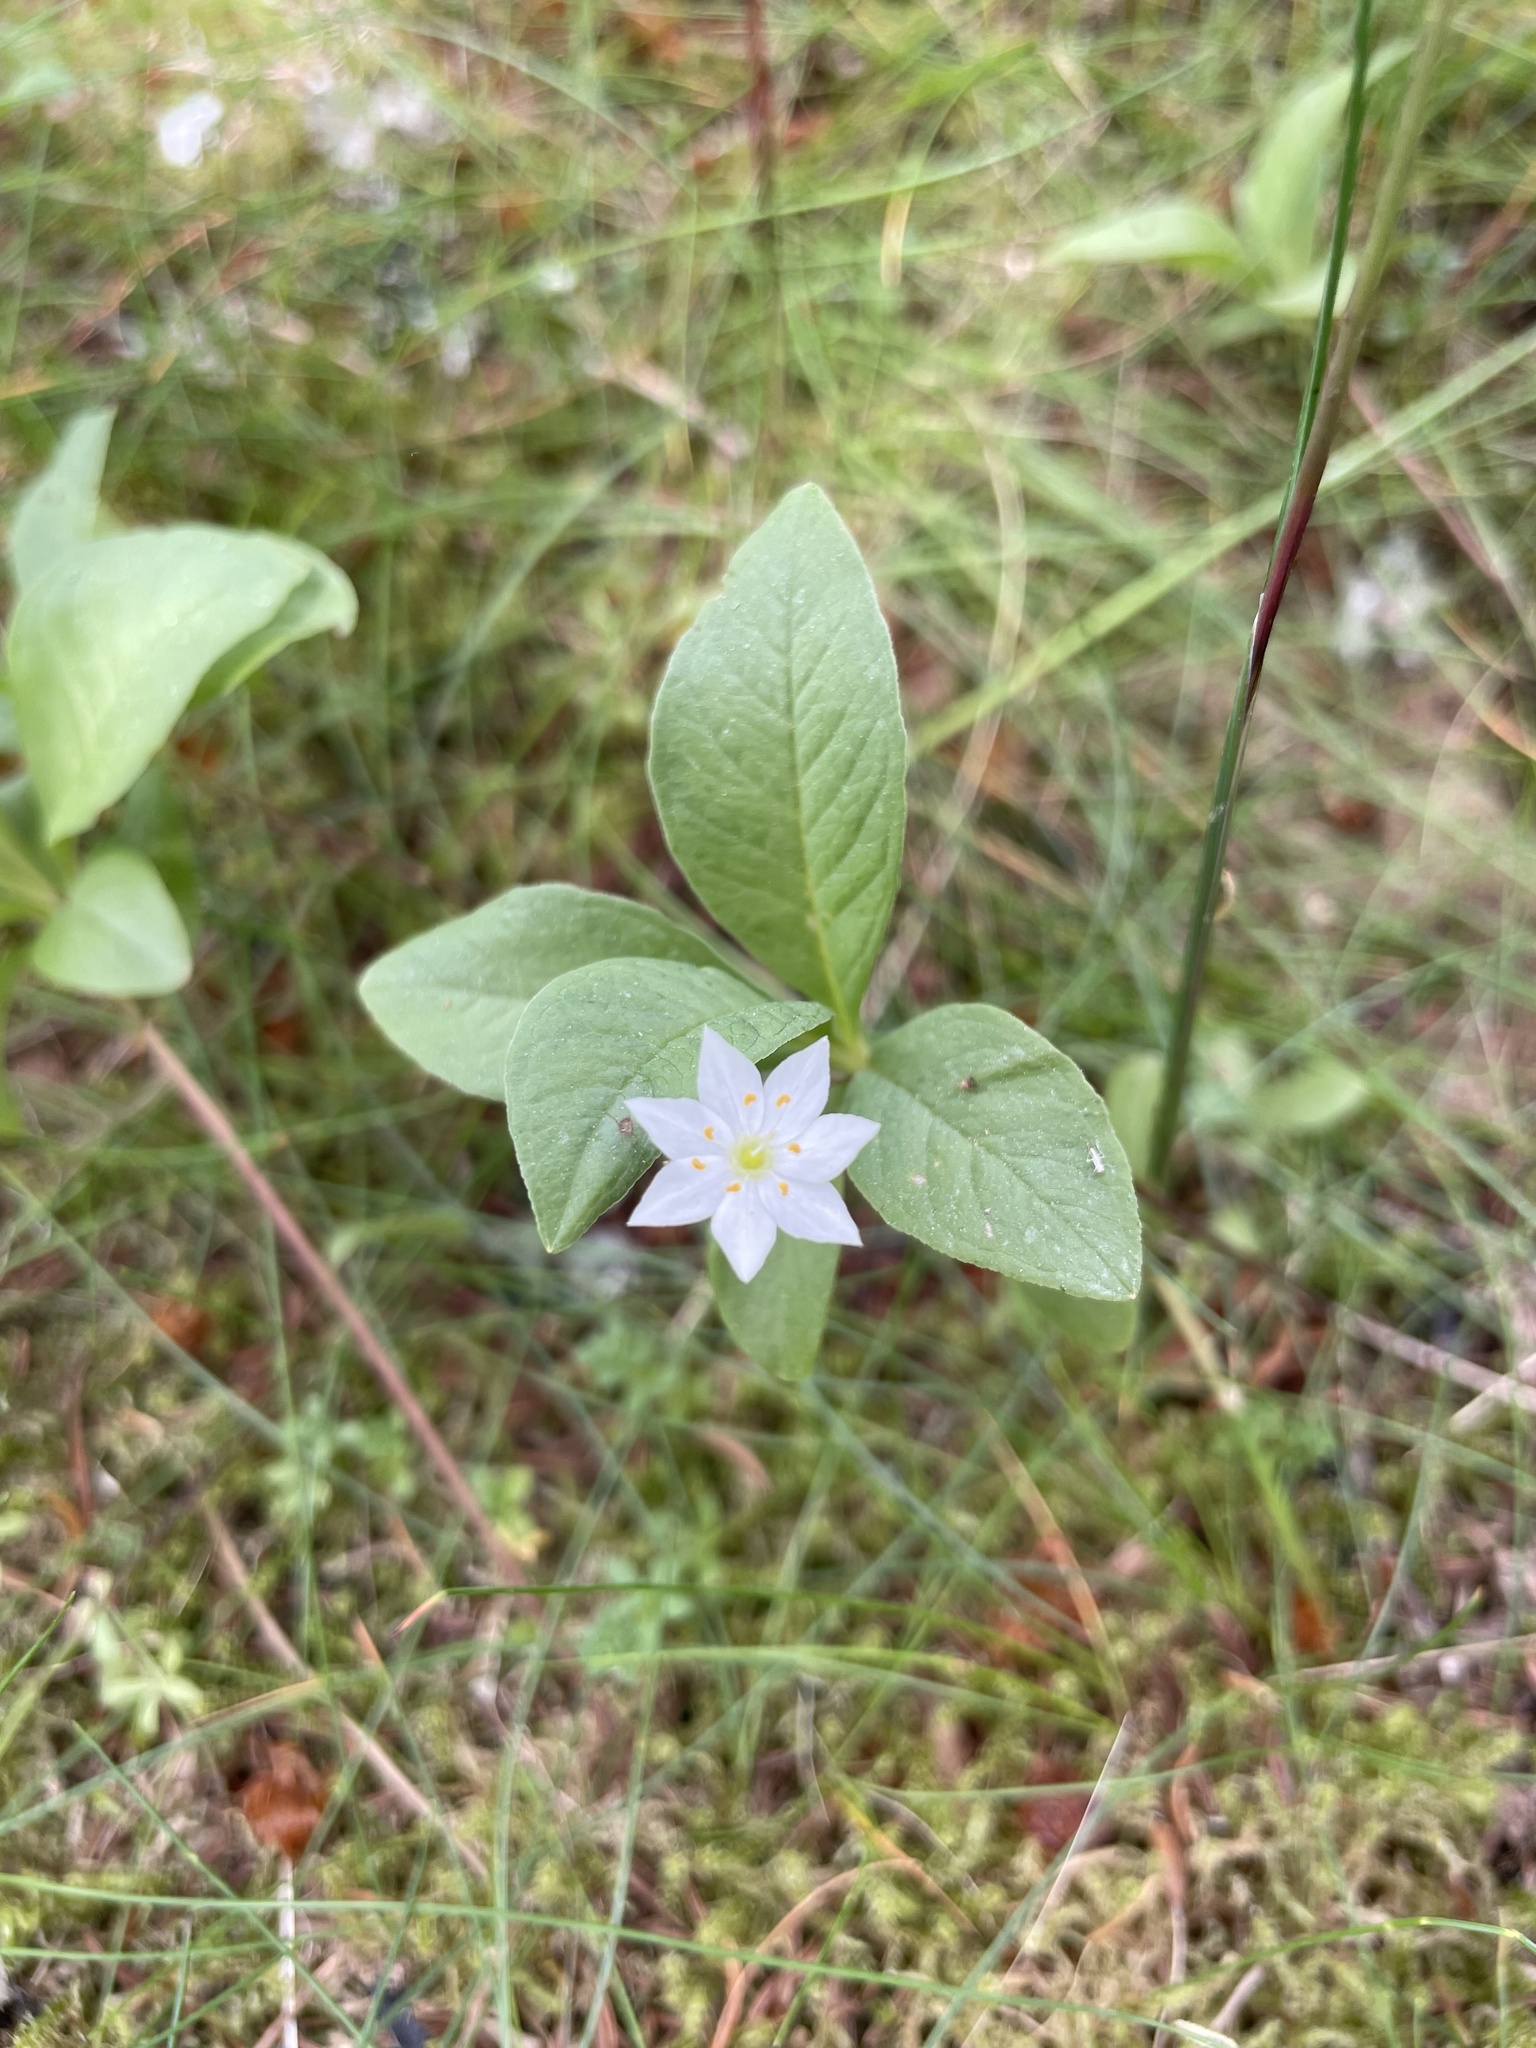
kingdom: Plantae
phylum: Tracheophyta
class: Magnoliopsida
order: Ericales
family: Primulaceae
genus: Lysimachia
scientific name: Lysimachia europaea
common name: Arctic starflower
